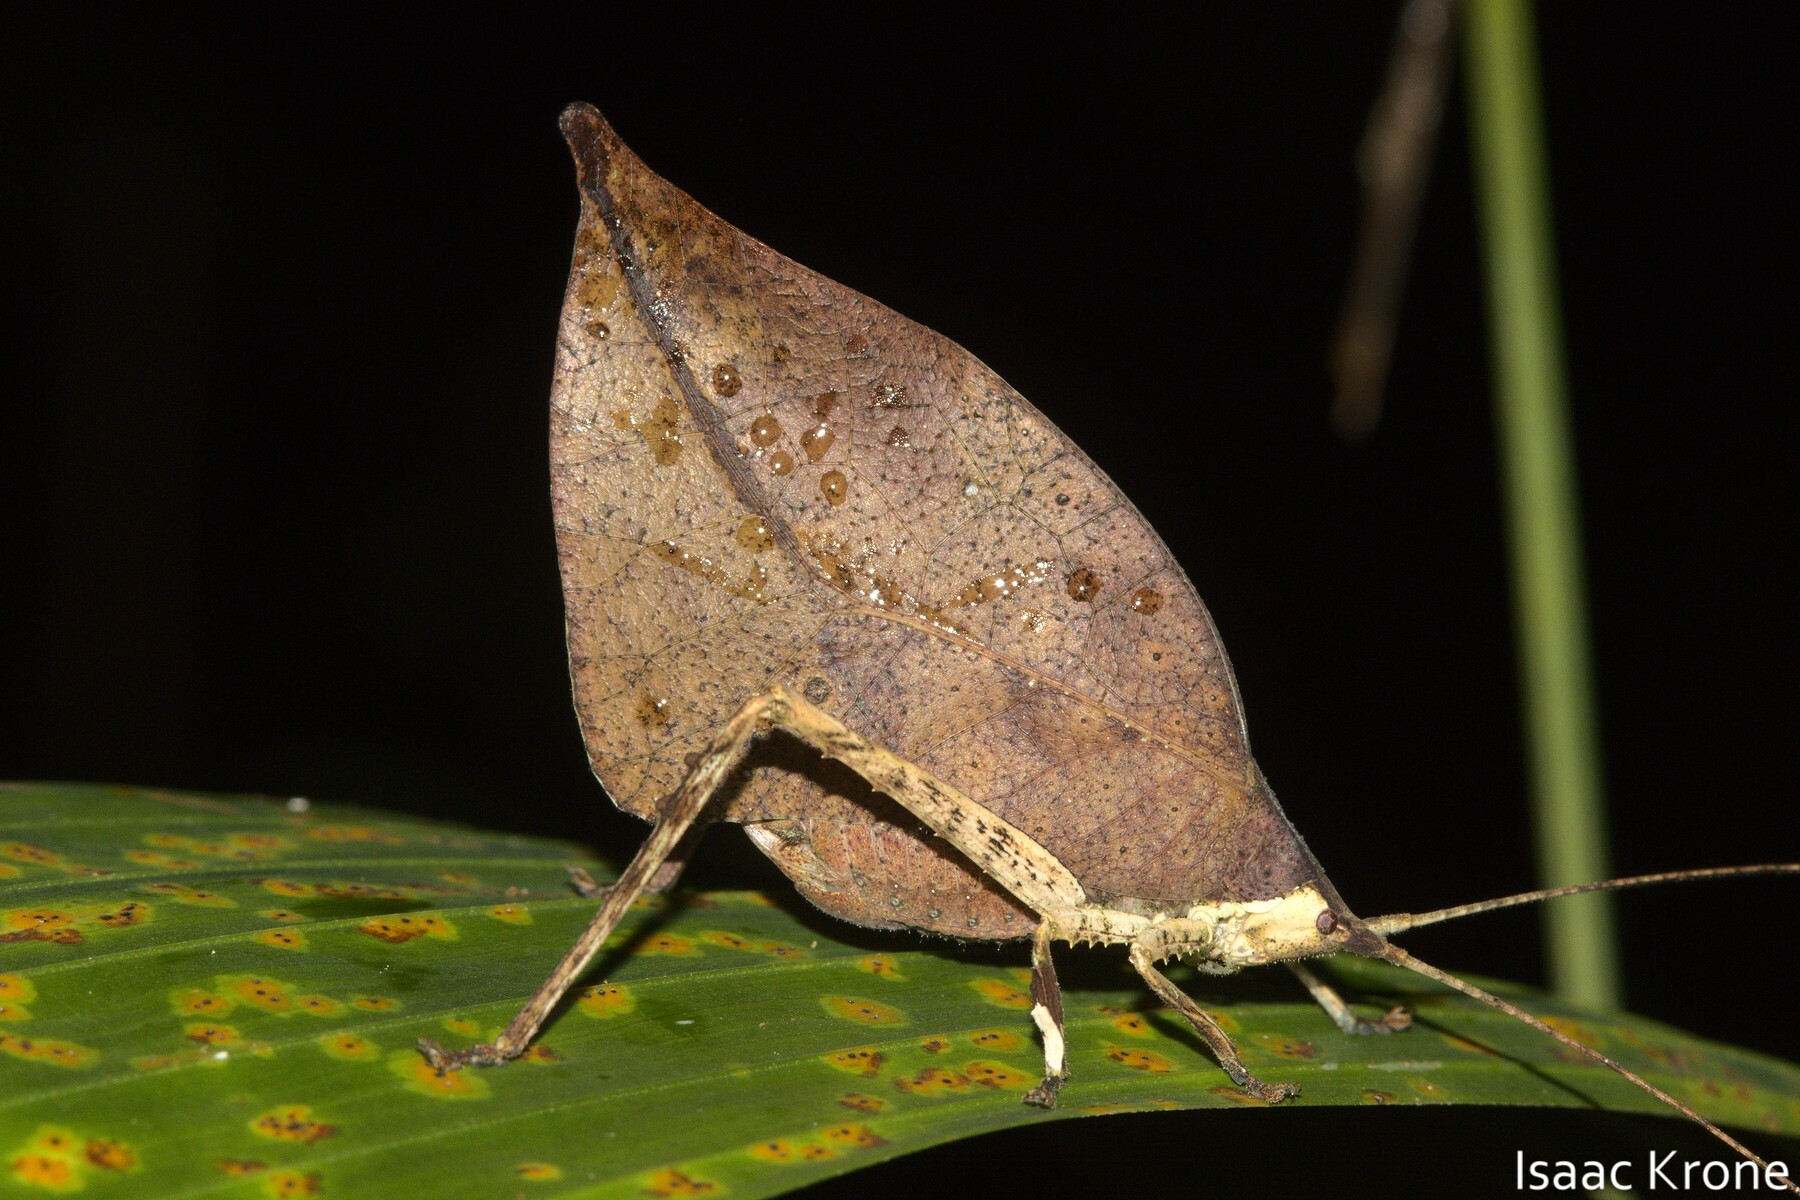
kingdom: Animalia
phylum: Arthropoda
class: Insecta
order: Orthoptera
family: Tettigoniidae
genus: Typophyllum
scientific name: Typophyllum trigonum
